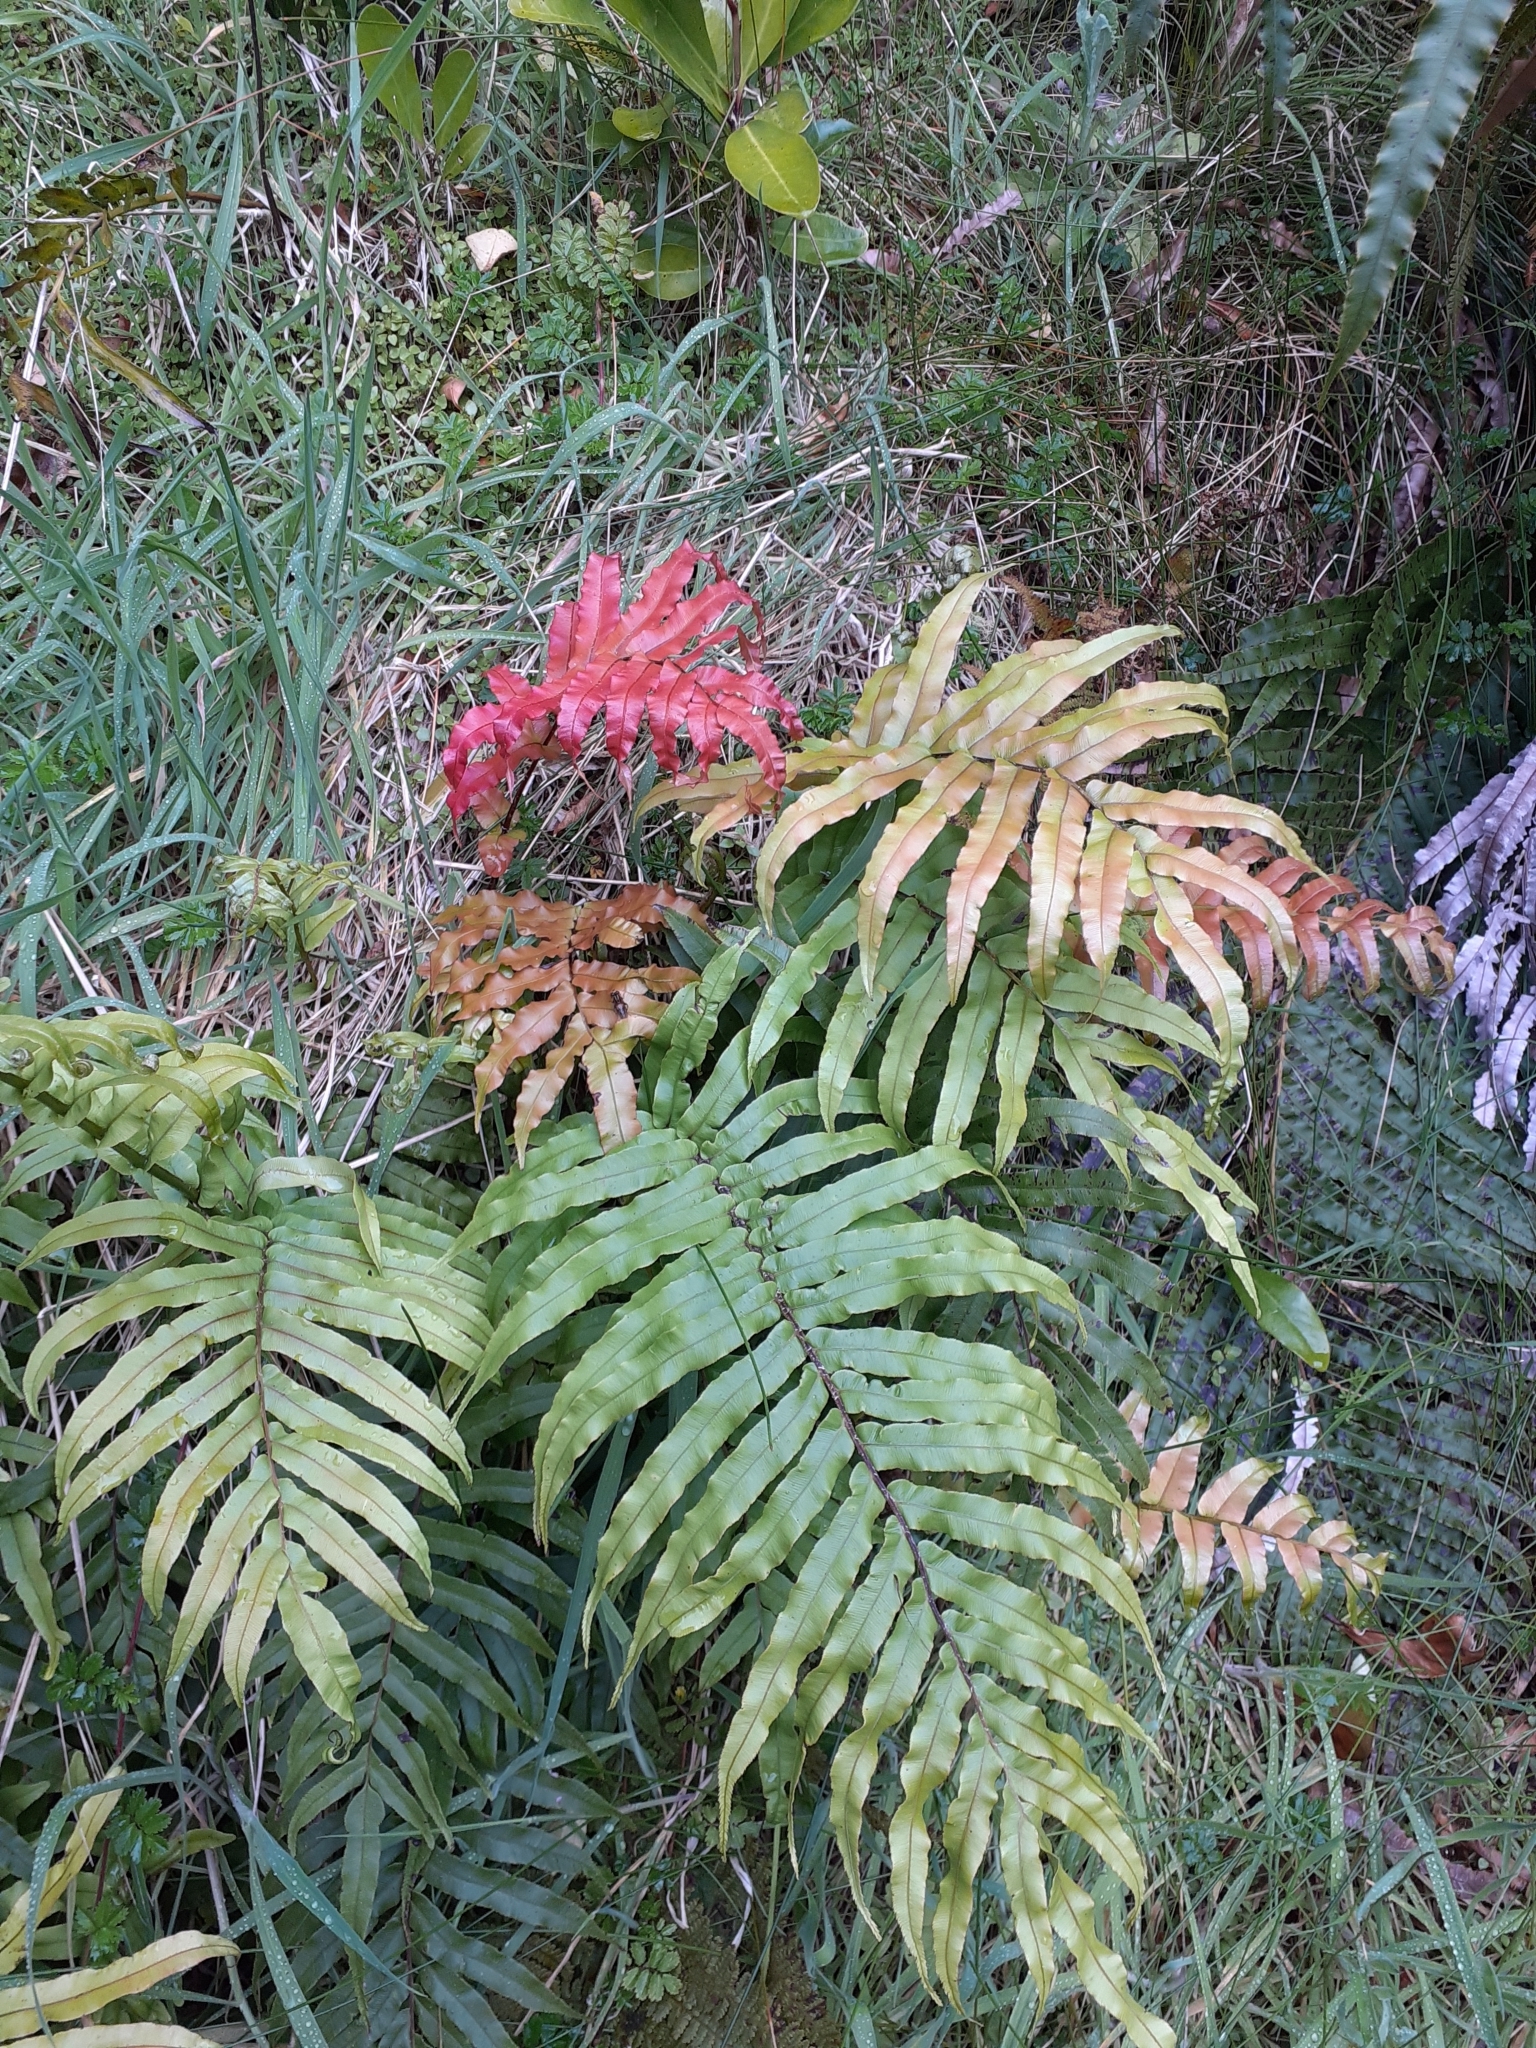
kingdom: Plantae
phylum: Tracheophyta
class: Polypodiopsida
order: Polypodiales
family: Blechnaceae
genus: Parablechnum
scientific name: Parablechnum novae-zelandiae
